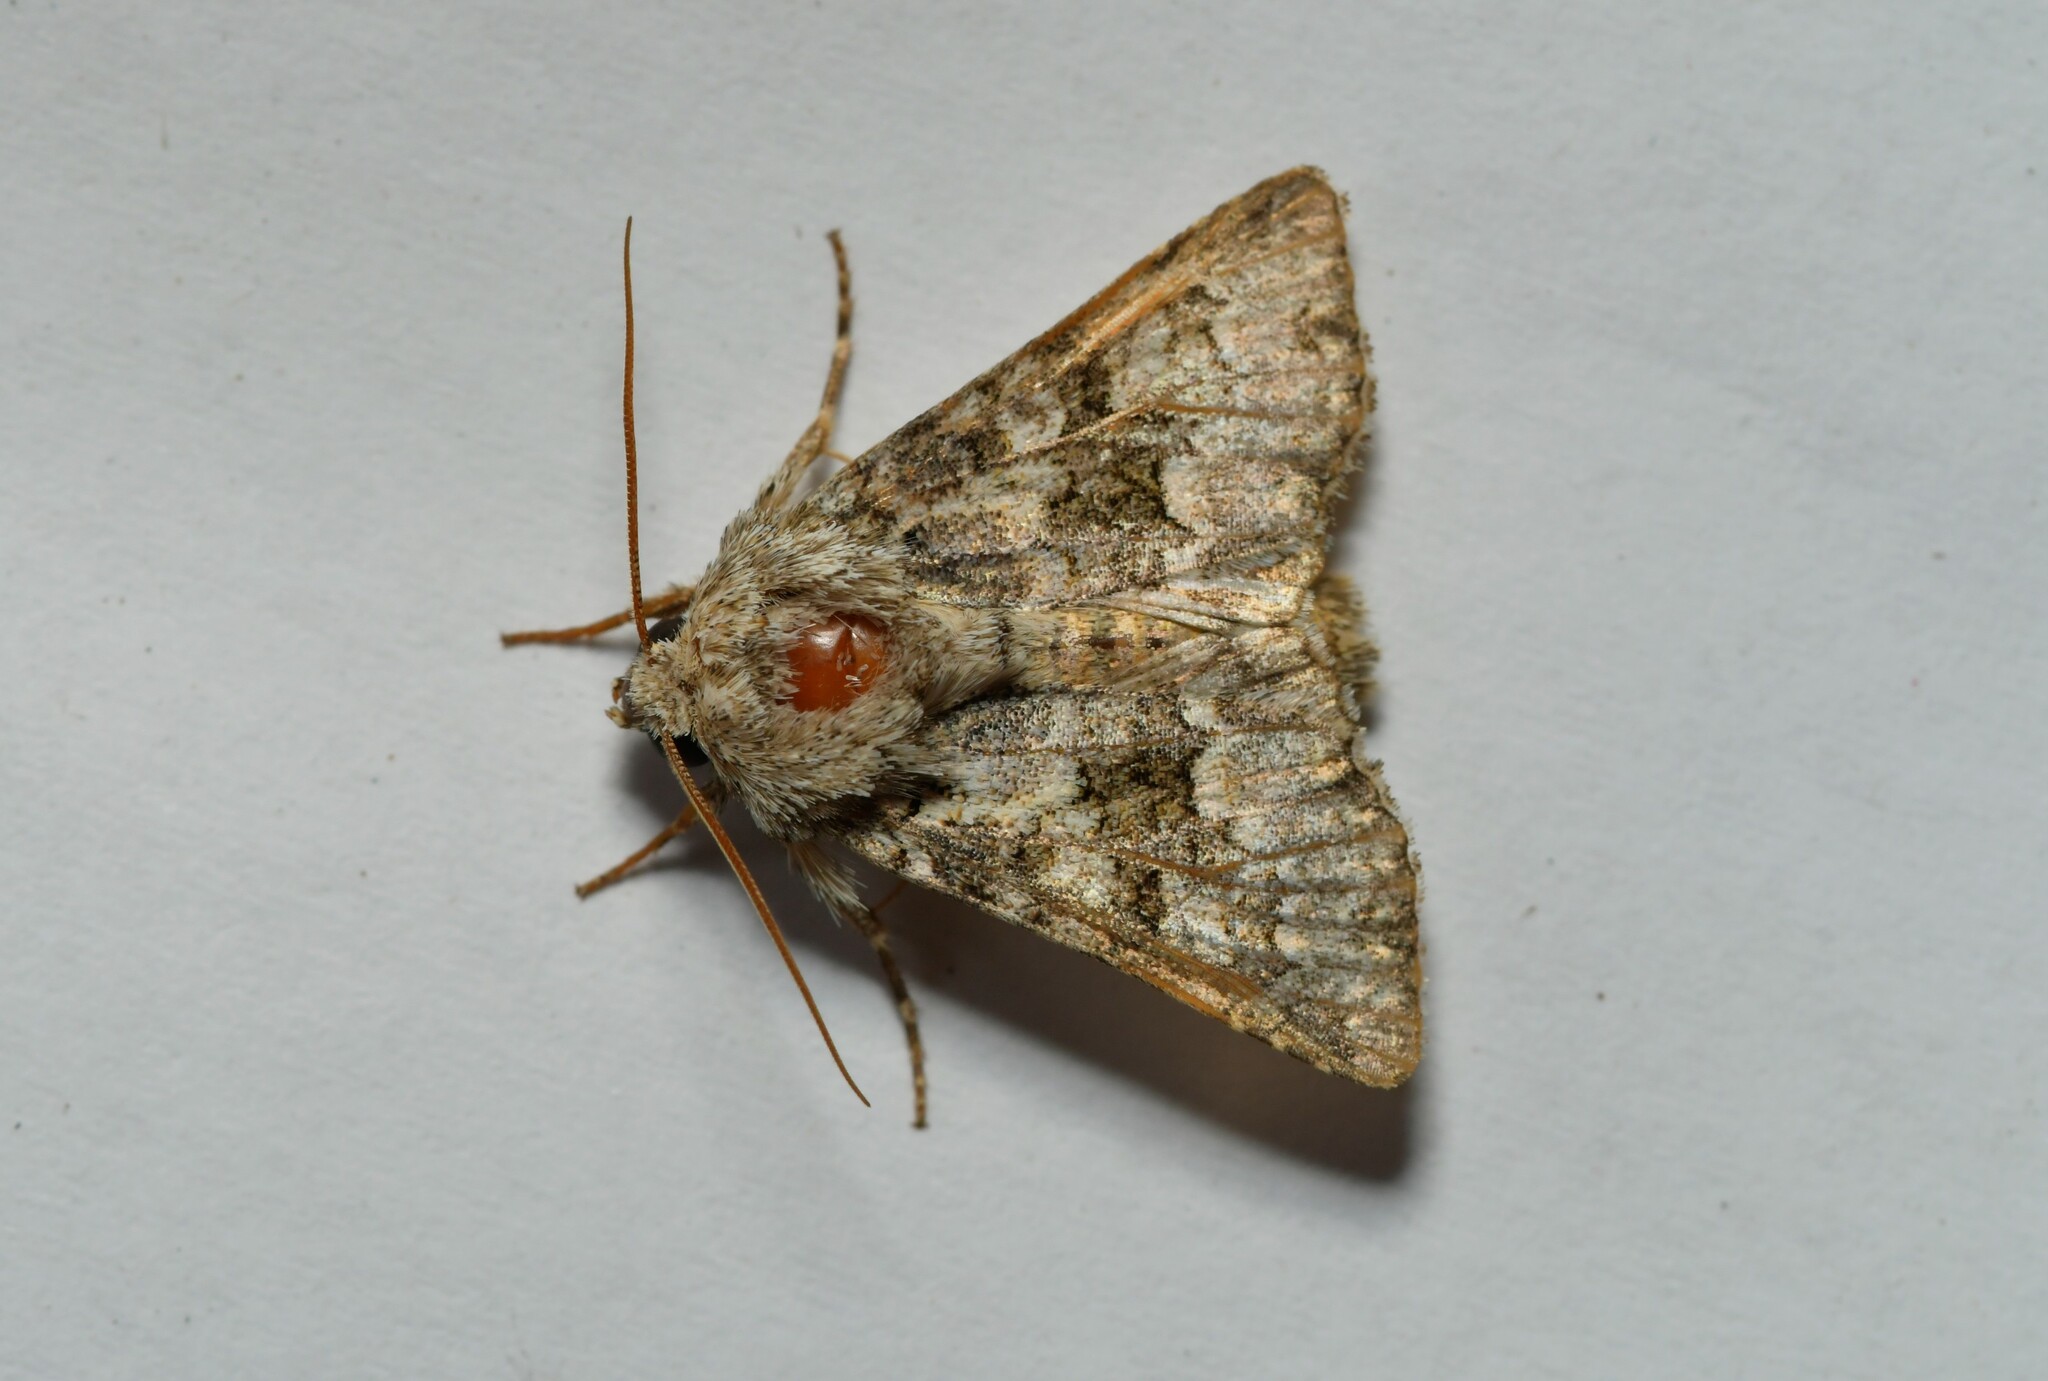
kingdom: Animalia
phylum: Arthropoda
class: Insecta
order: Lepidoptera
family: Noctuidae
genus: Hecatera
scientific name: Hecatera weissi
